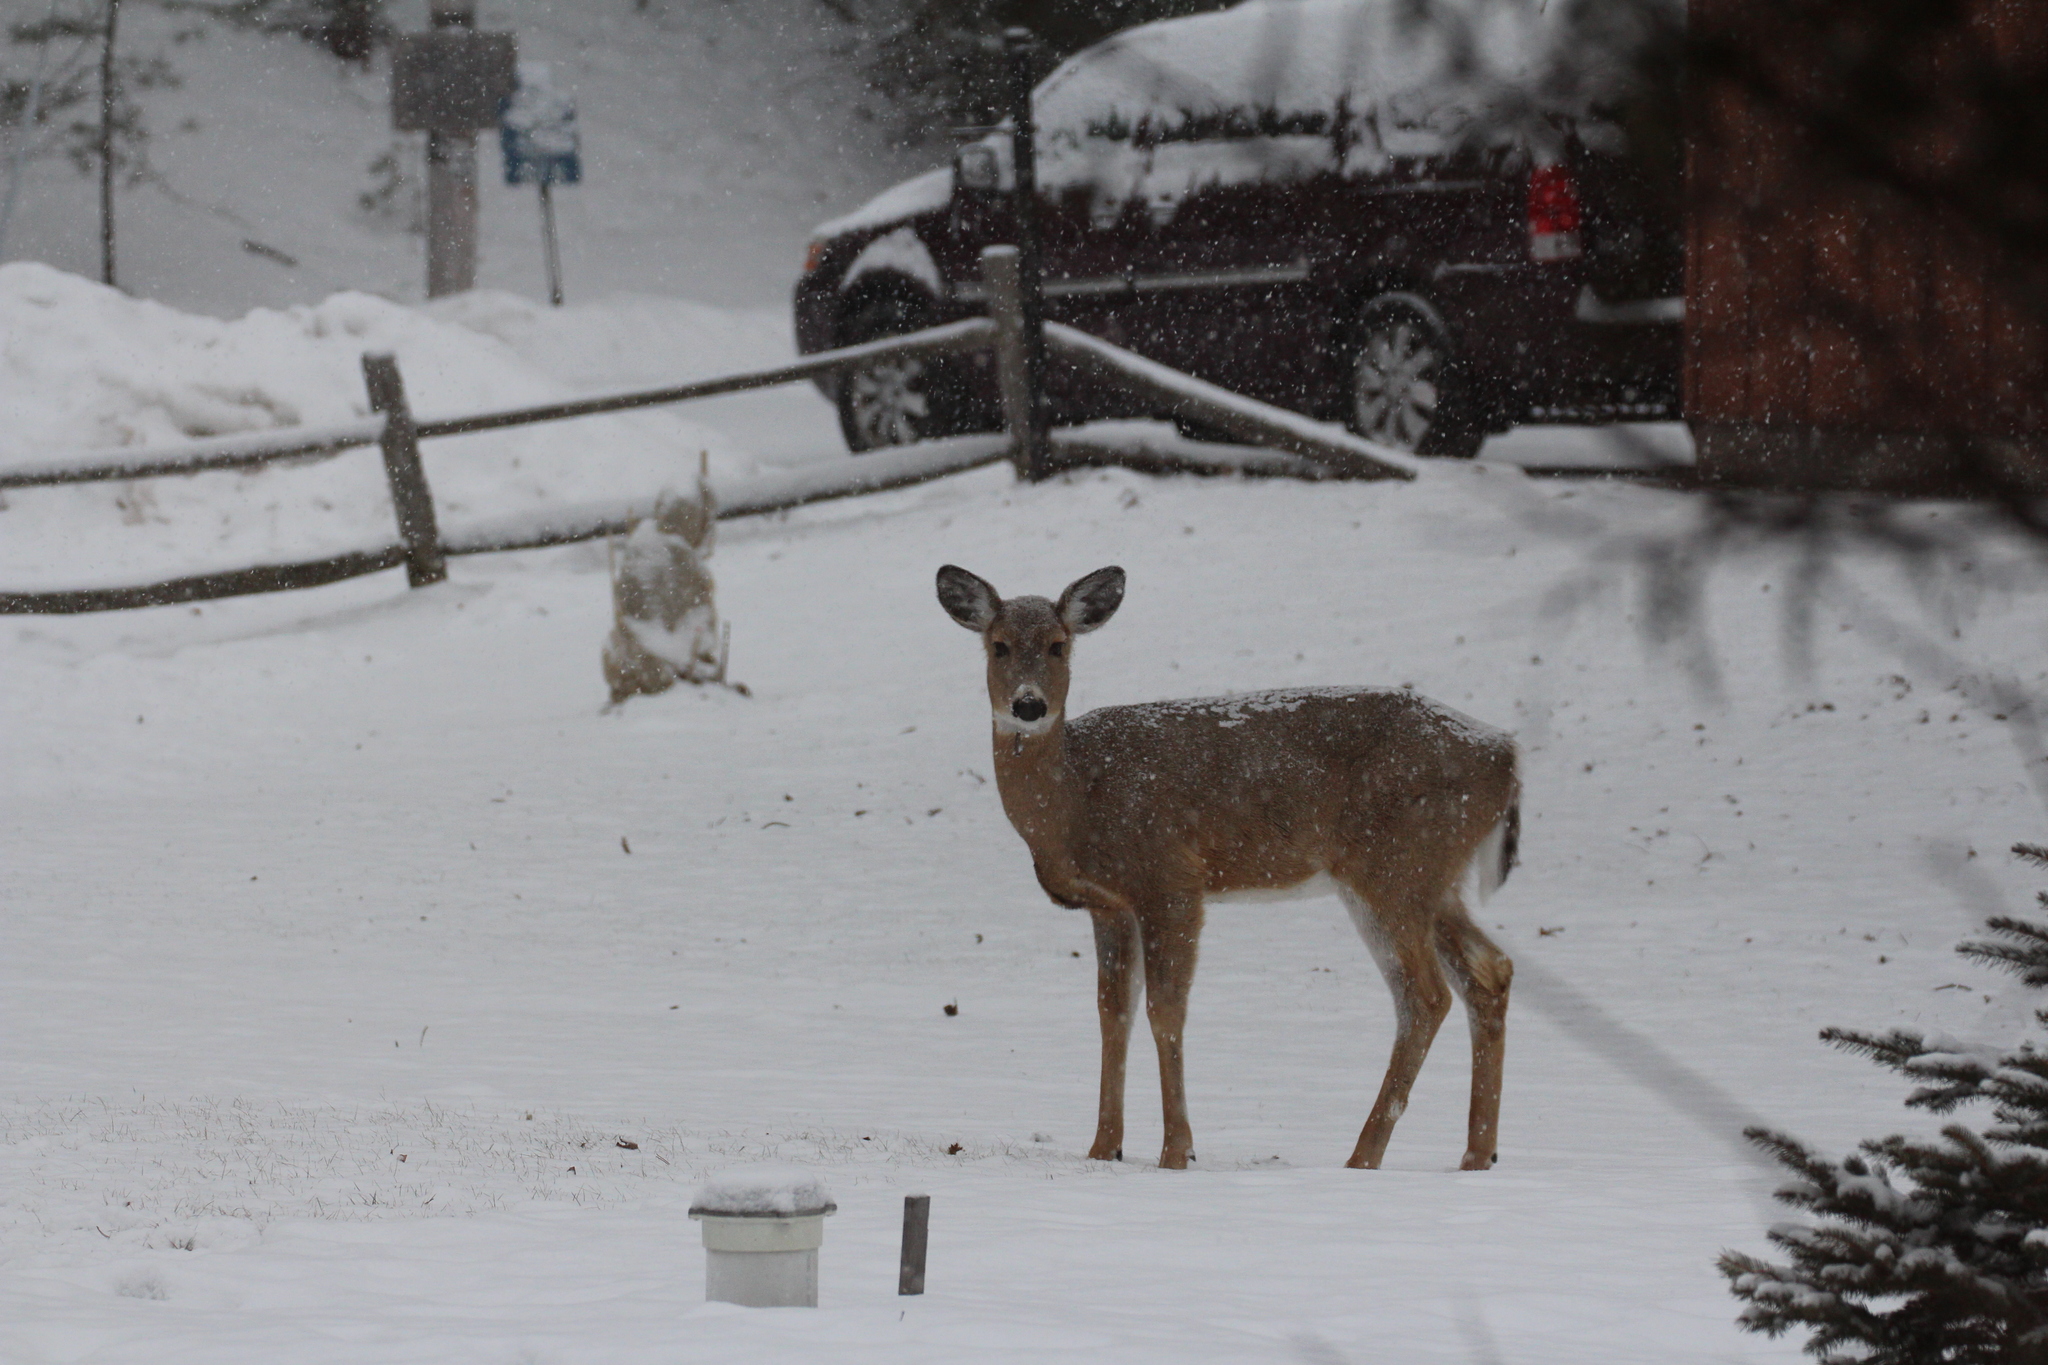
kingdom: Animalia
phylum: Chordata
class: Mammalia
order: Artiodactyla
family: Cervidae
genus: Odocoileus
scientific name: Odocoileus virginianus
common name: White-tailed deer
